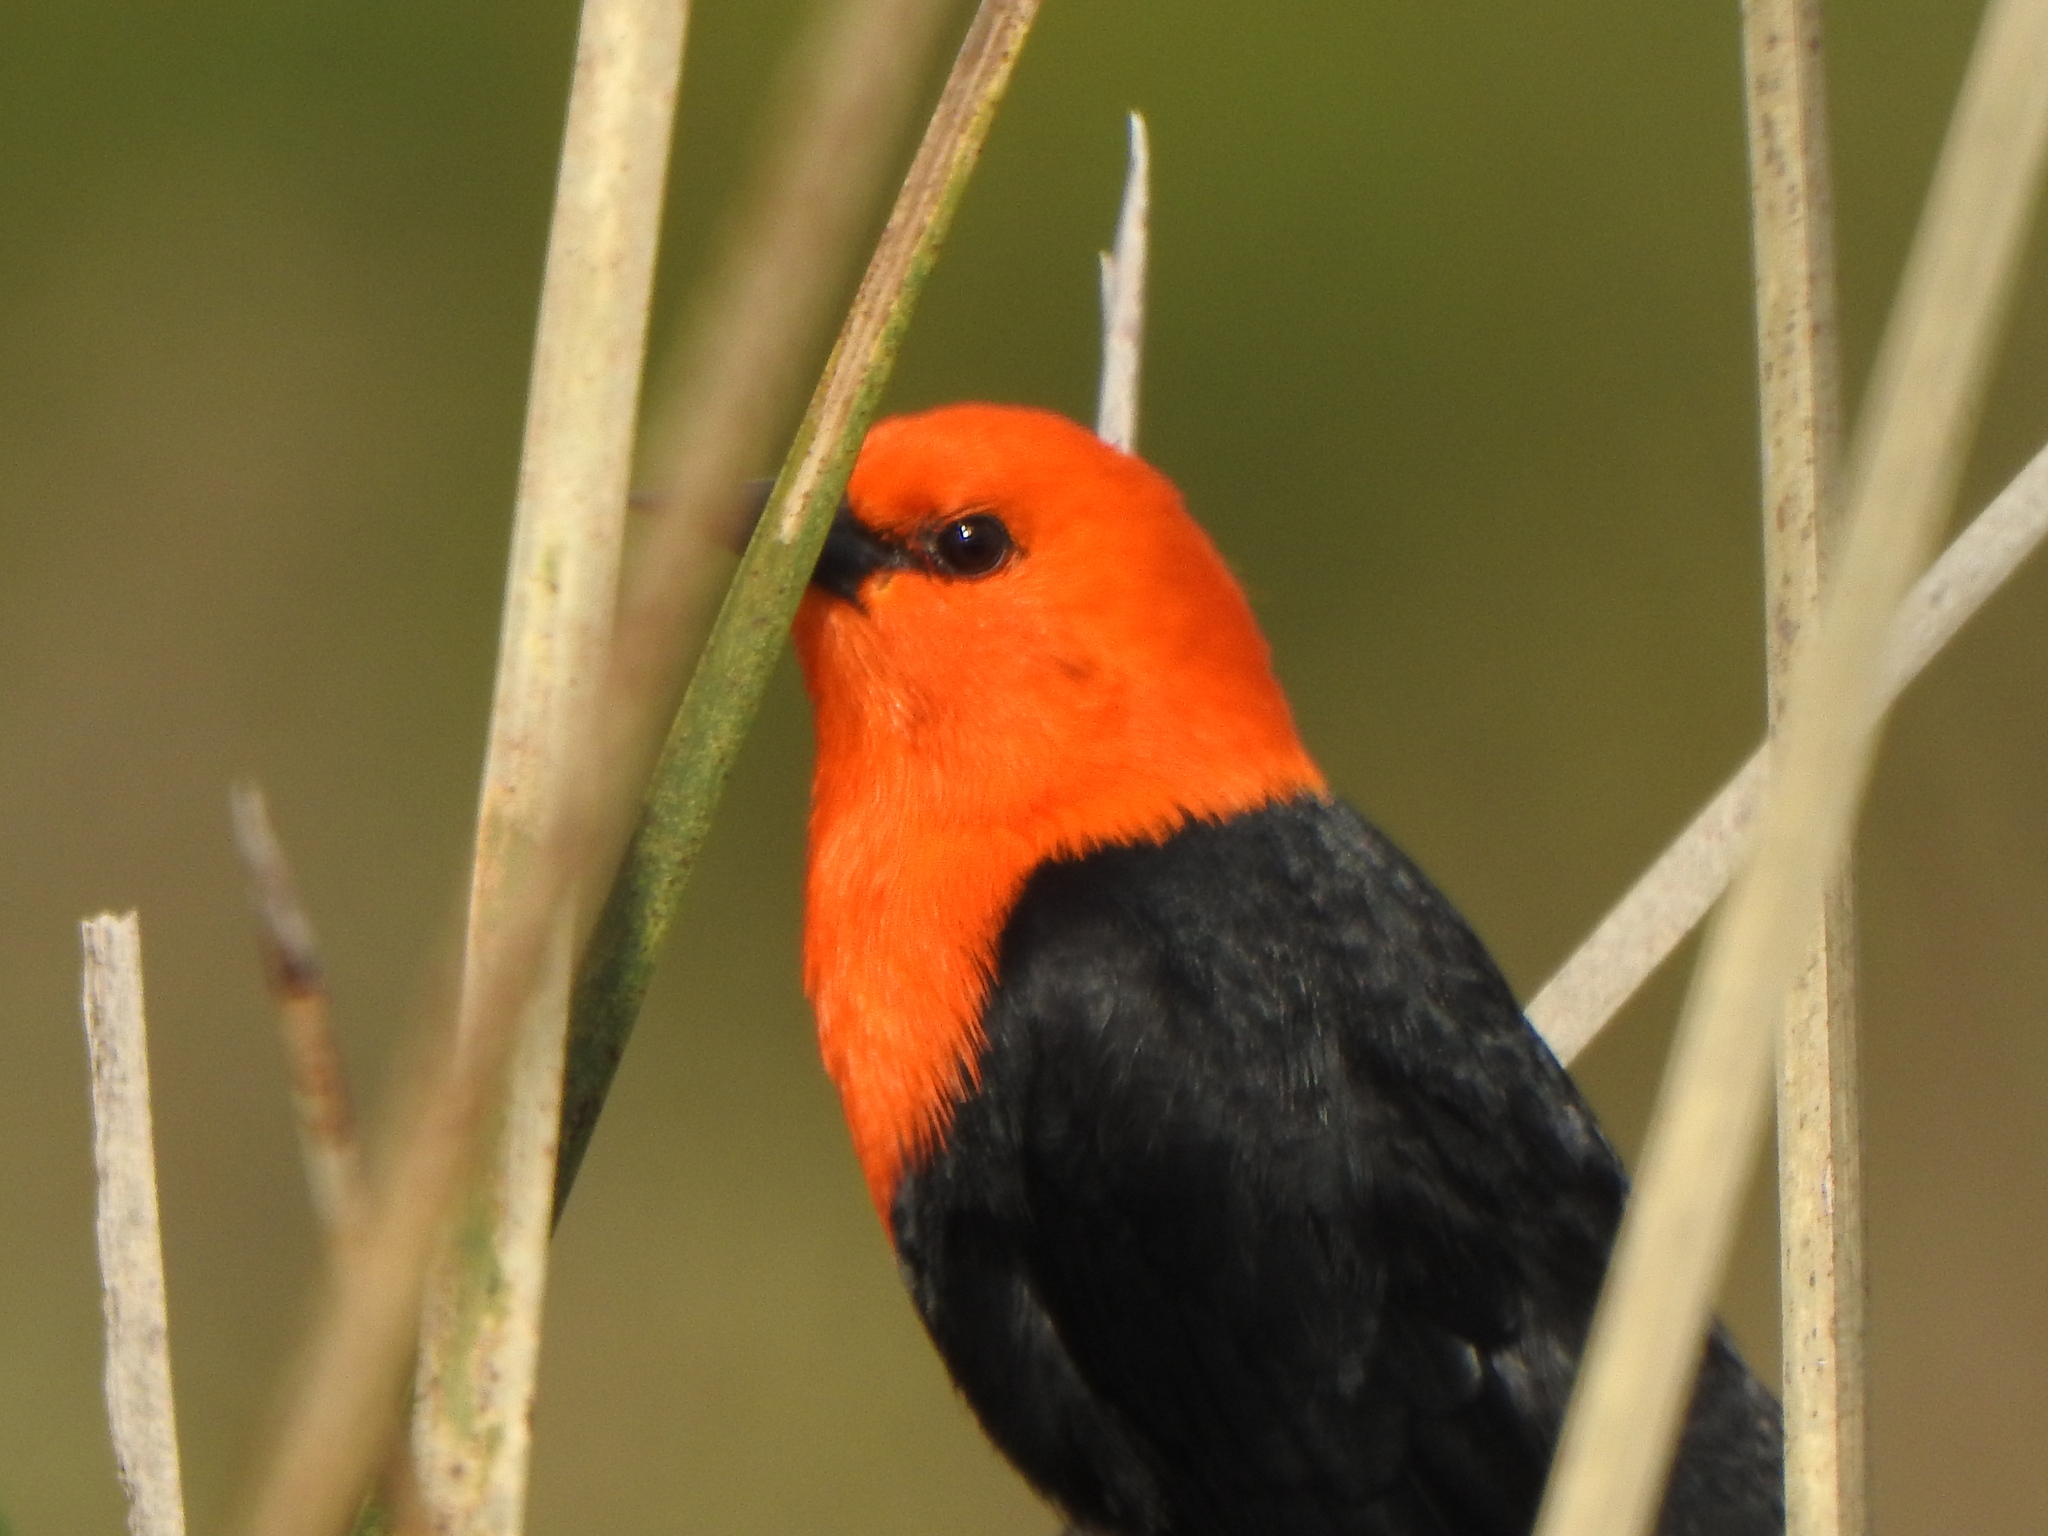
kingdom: Animalia
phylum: Chordata
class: Aves
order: Passeriformes
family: Icteridae
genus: Amblyramphus
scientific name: Amblyramphus holosericeus
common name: Scarlet-headed blackbird
